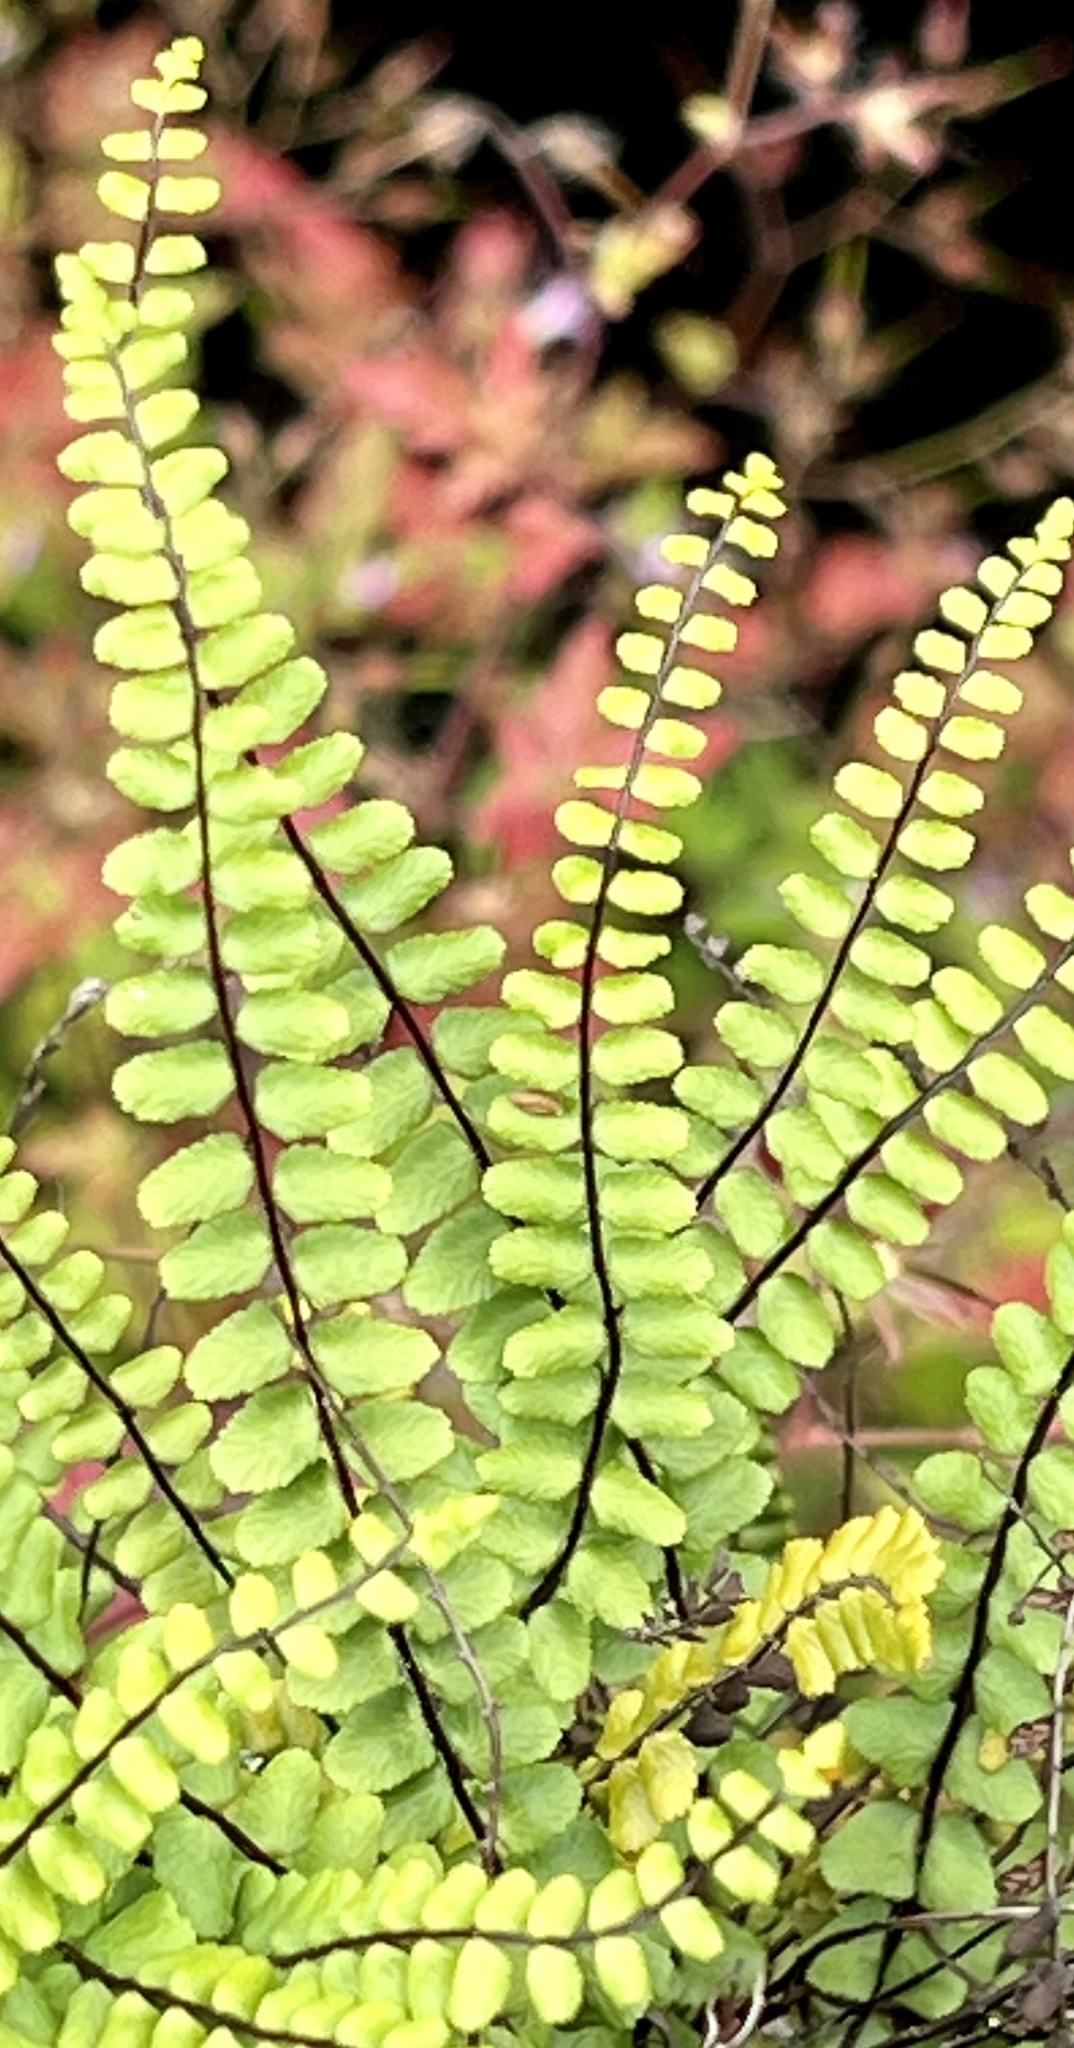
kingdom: Plantae
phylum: Tracheophyta
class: Polypodiopsida
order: Polypodiales
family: Aspleniaceae
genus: Asplenium
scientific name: Asplenium trichomanes
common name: Maidenhair spleenwort
